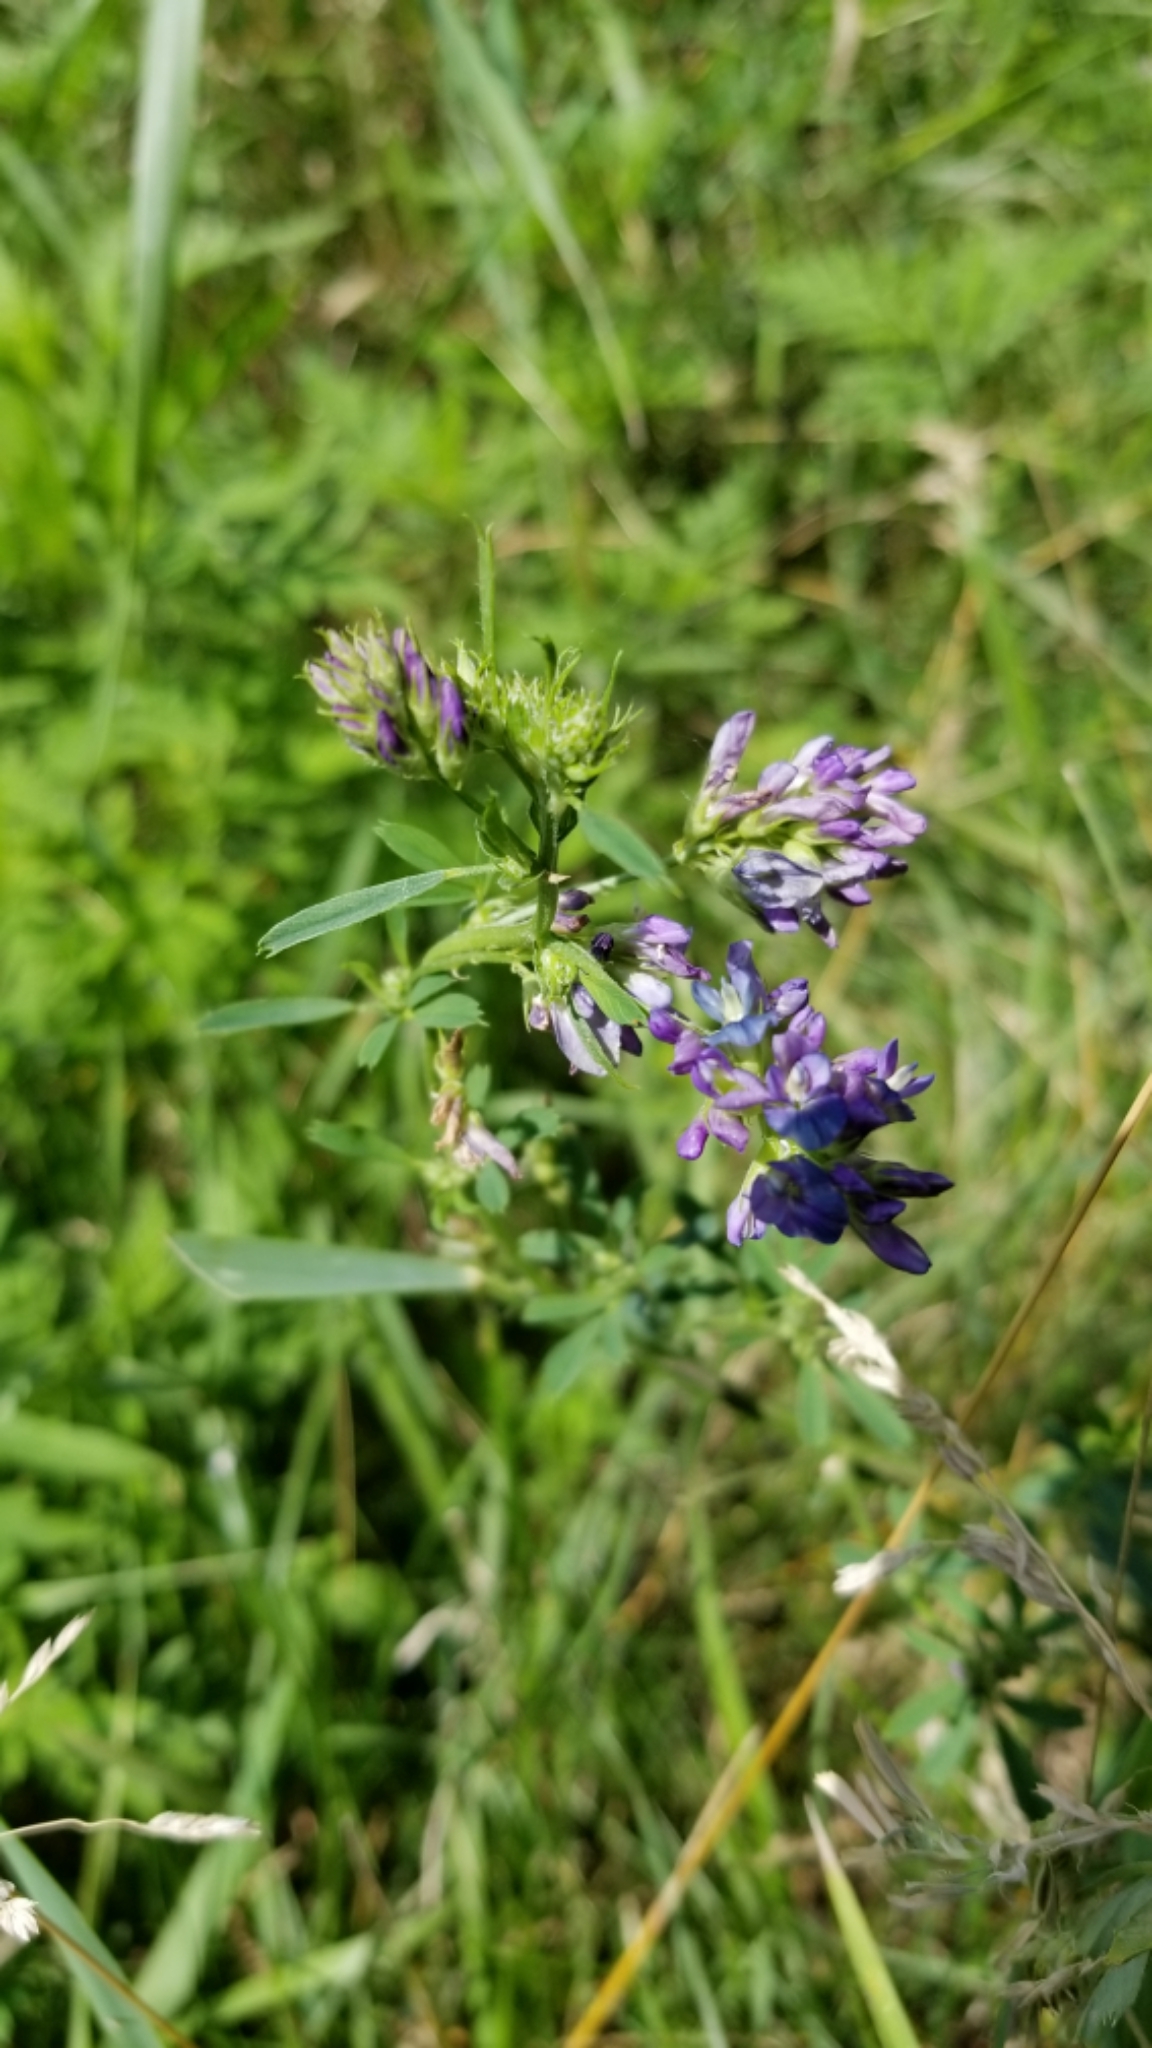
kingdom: Plantae
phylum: Tracheophyta
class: Magnoliopsida
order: Fabales
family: Fabaceae
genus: Medicago
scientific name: Medicago sativa
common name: Alfalfa
